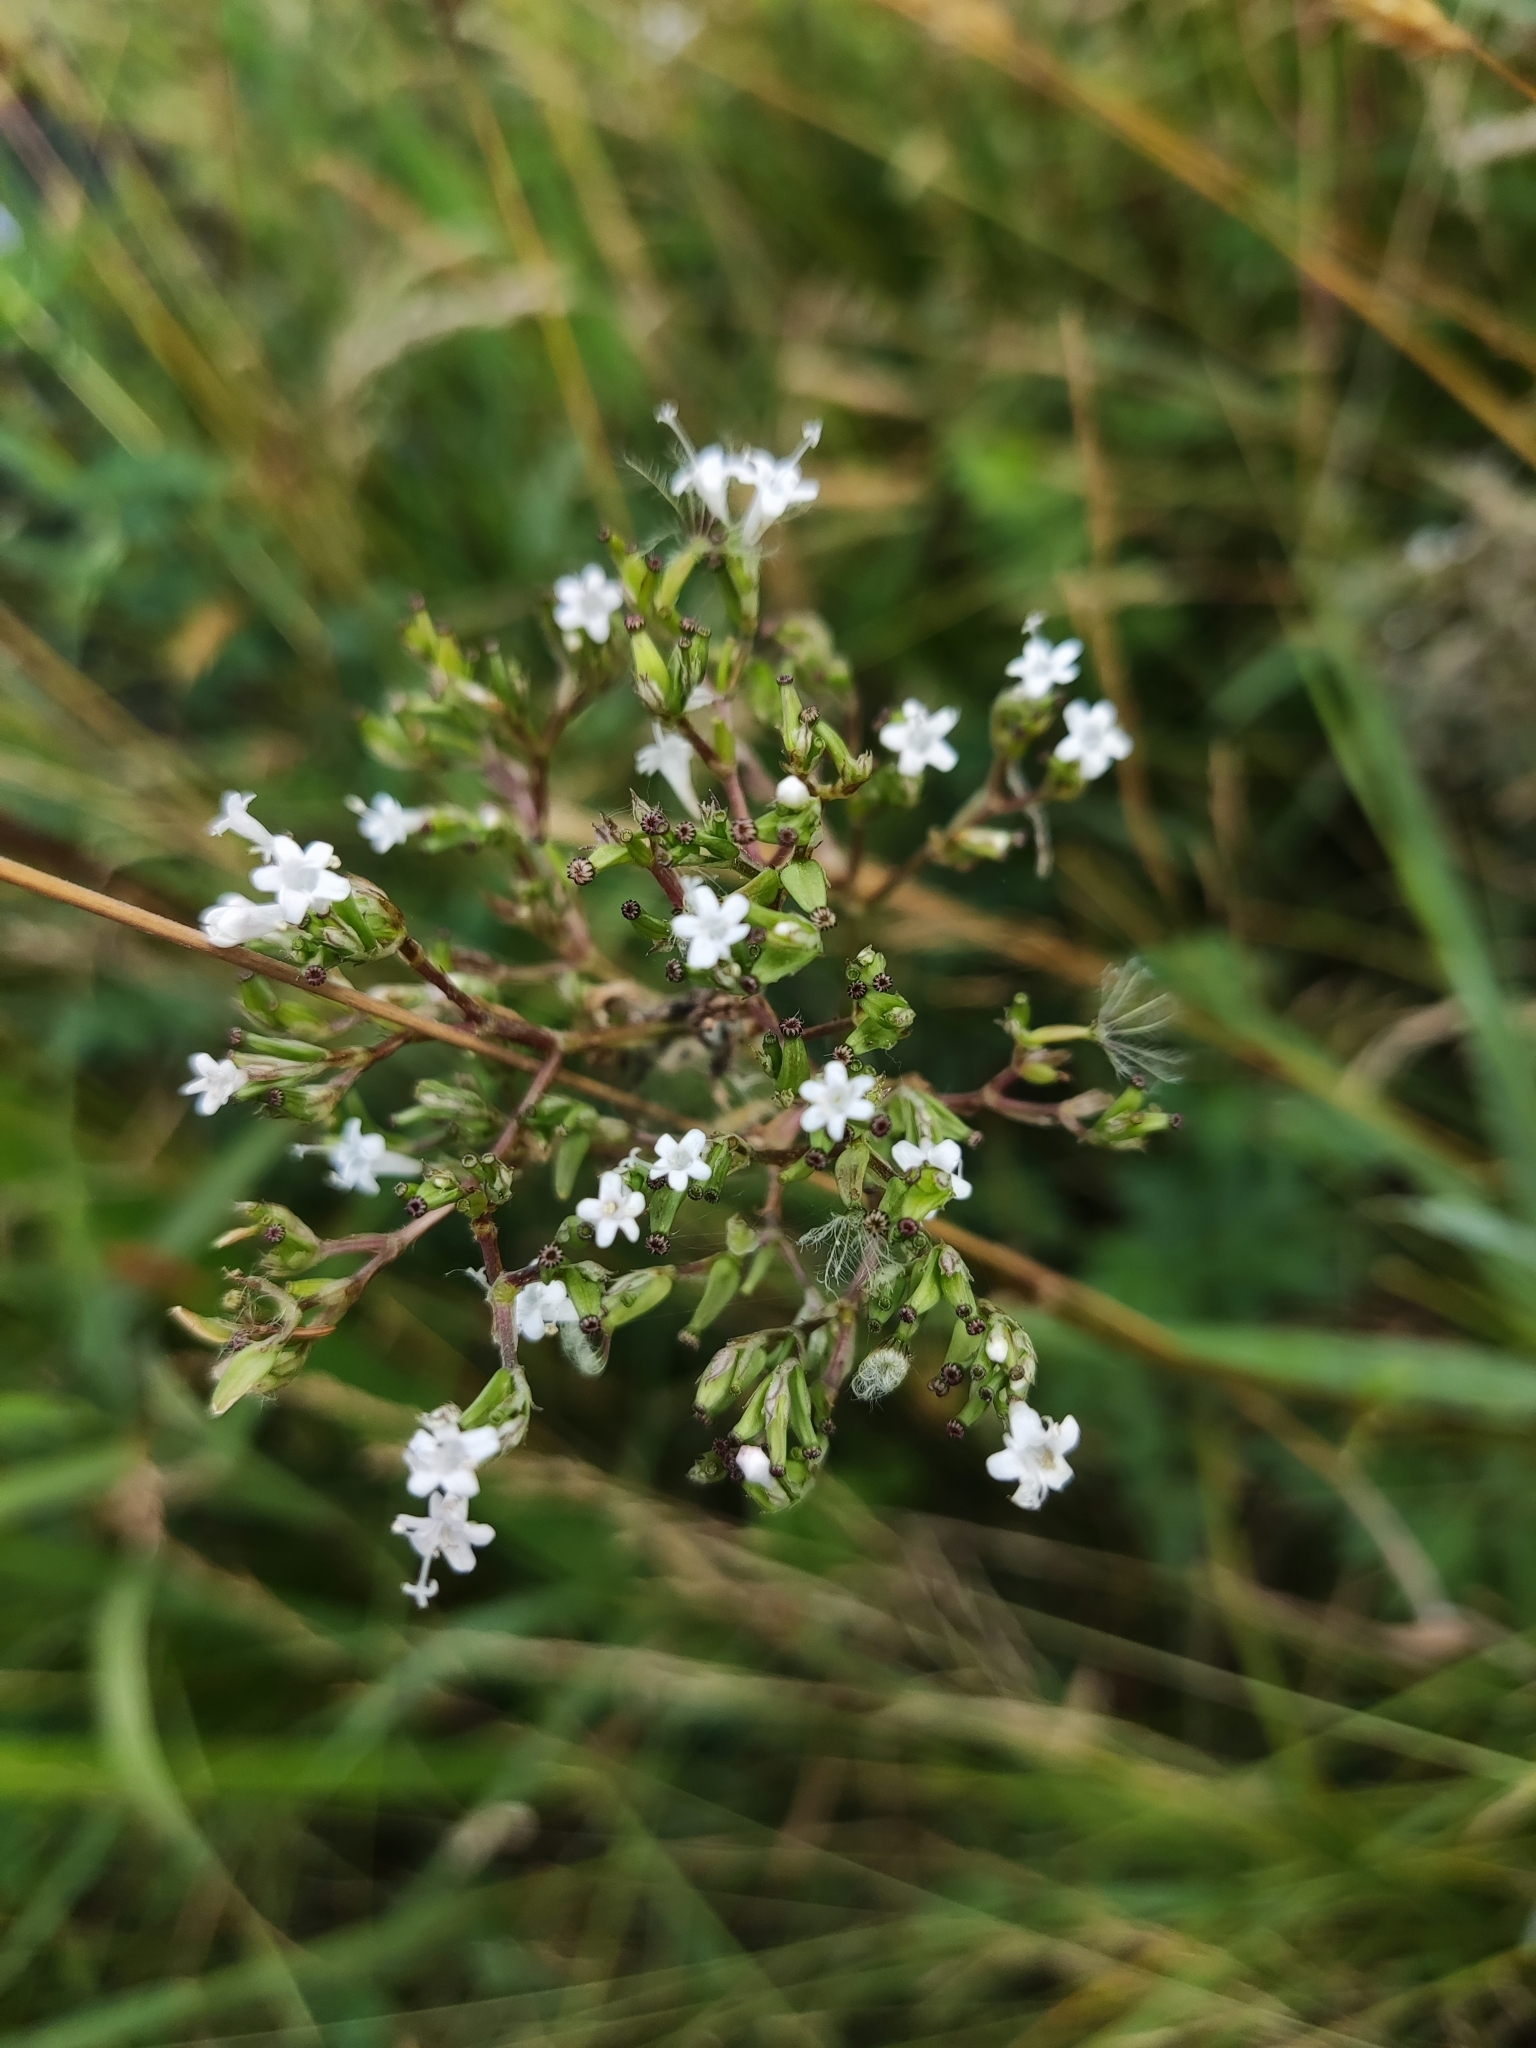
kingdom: Plantae
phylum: Tracheophyta
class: Magnoliopsida
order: Dipsacales
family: Caprifoliaceae
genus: Valeriana
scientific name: Valeriana officinalis
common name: Common valerian
